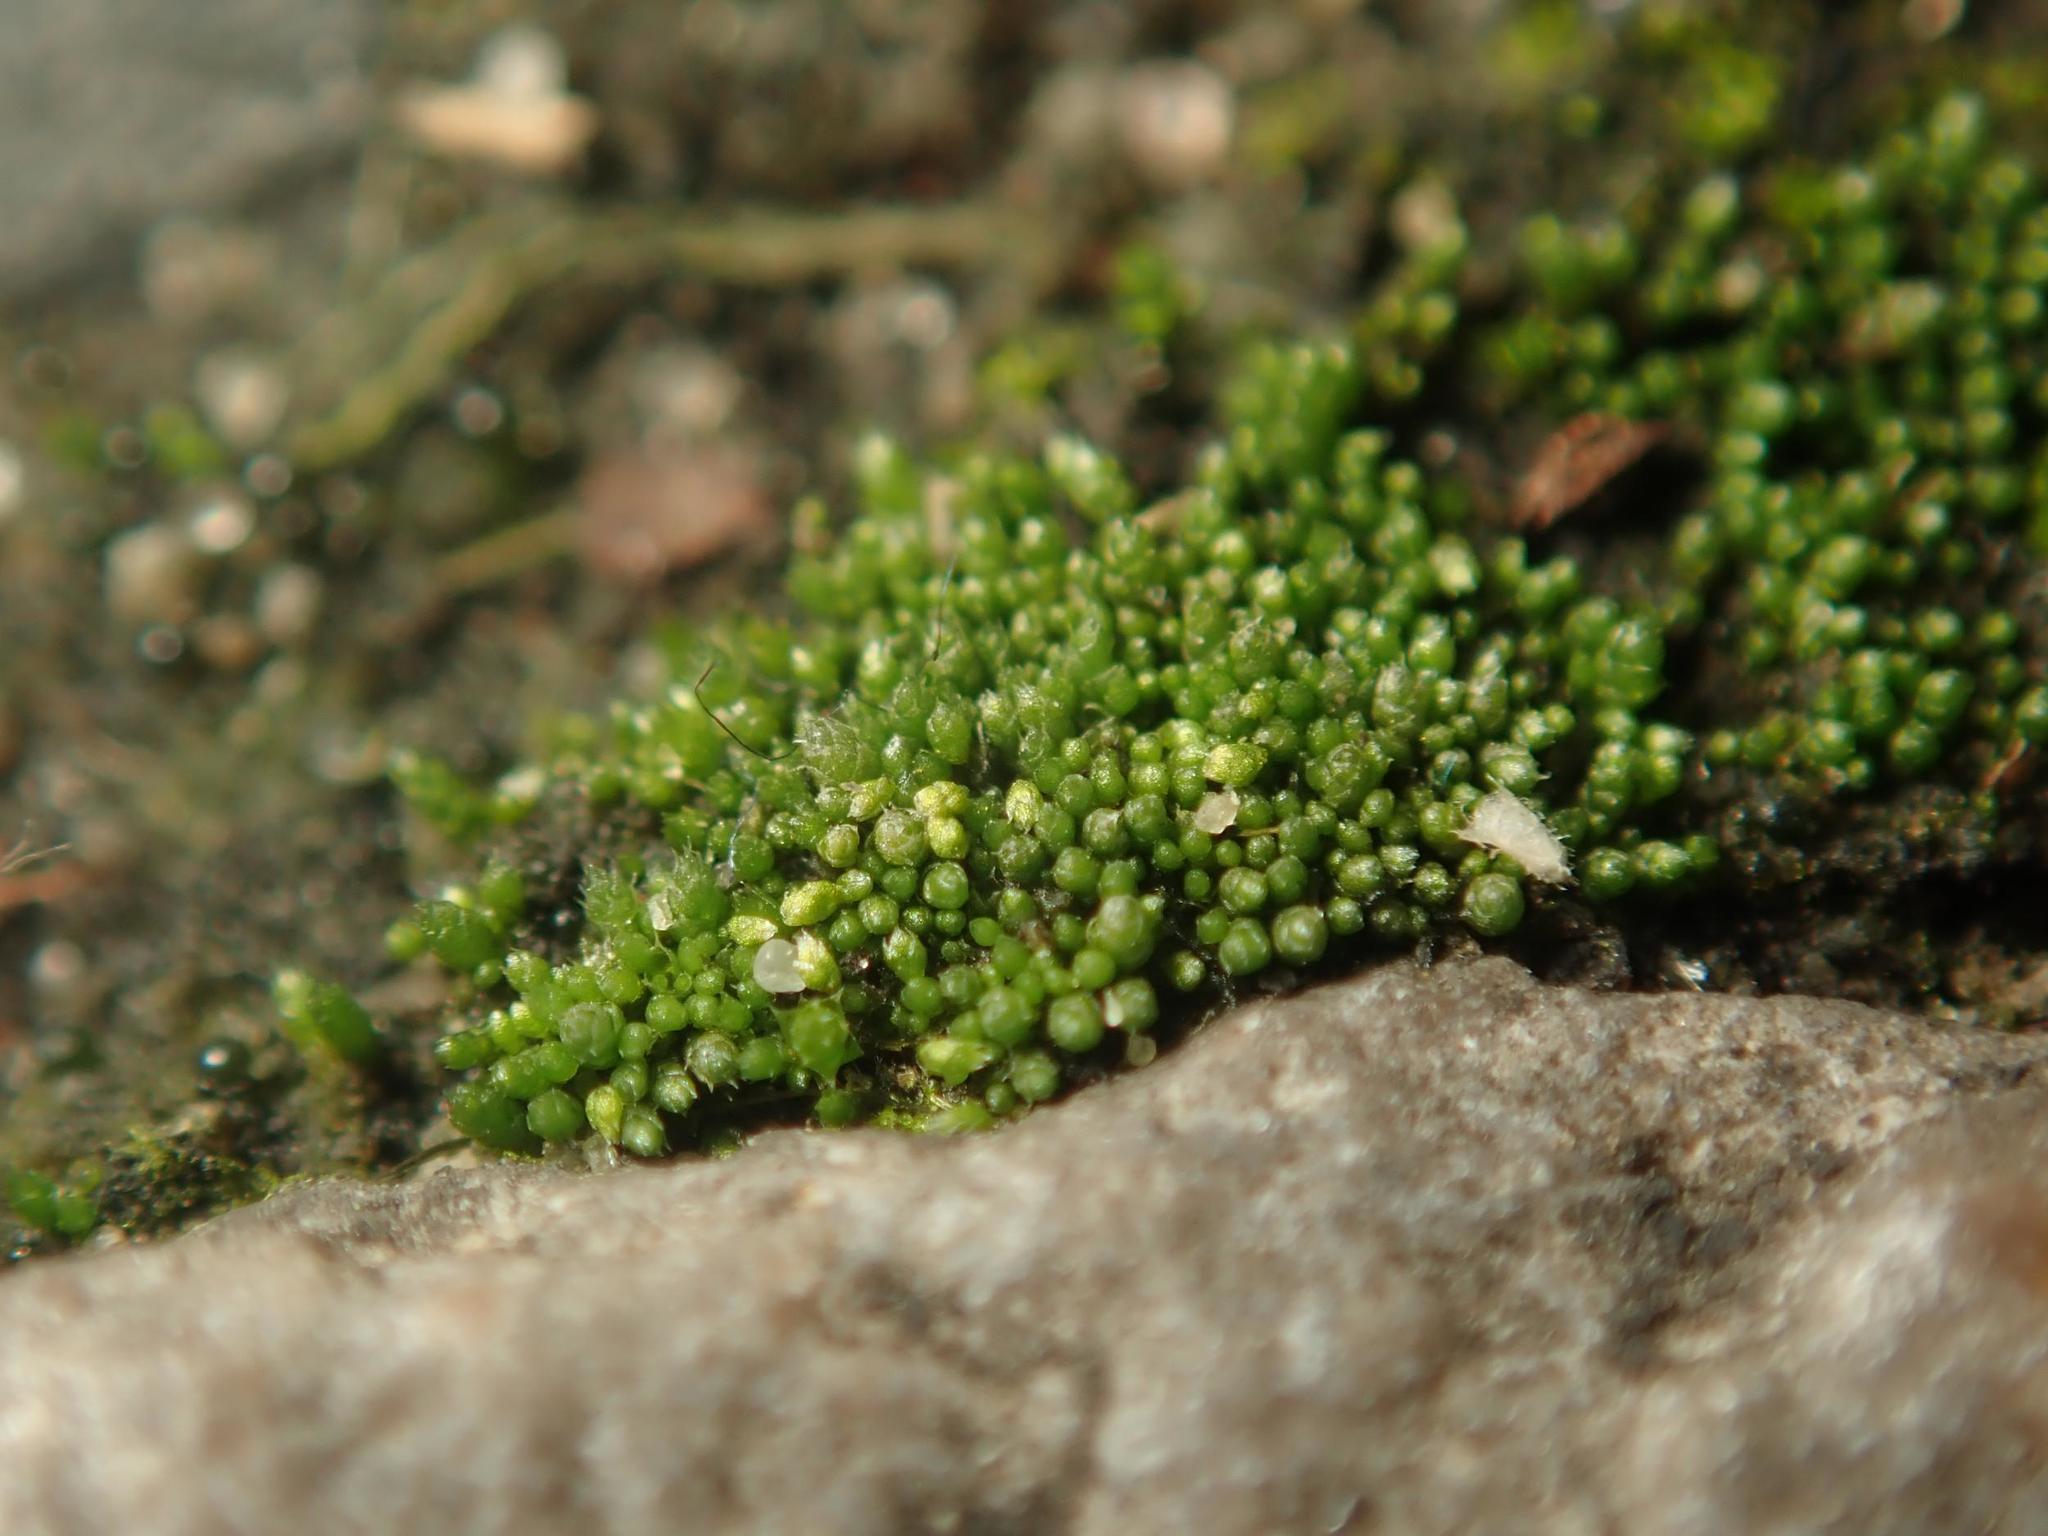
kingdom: Plantae
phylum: Bryophyta
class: Bryopsida
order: Bryales
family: Bryaceae
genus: Bryum
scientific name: Bryum argenteum
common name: Silver-moss
